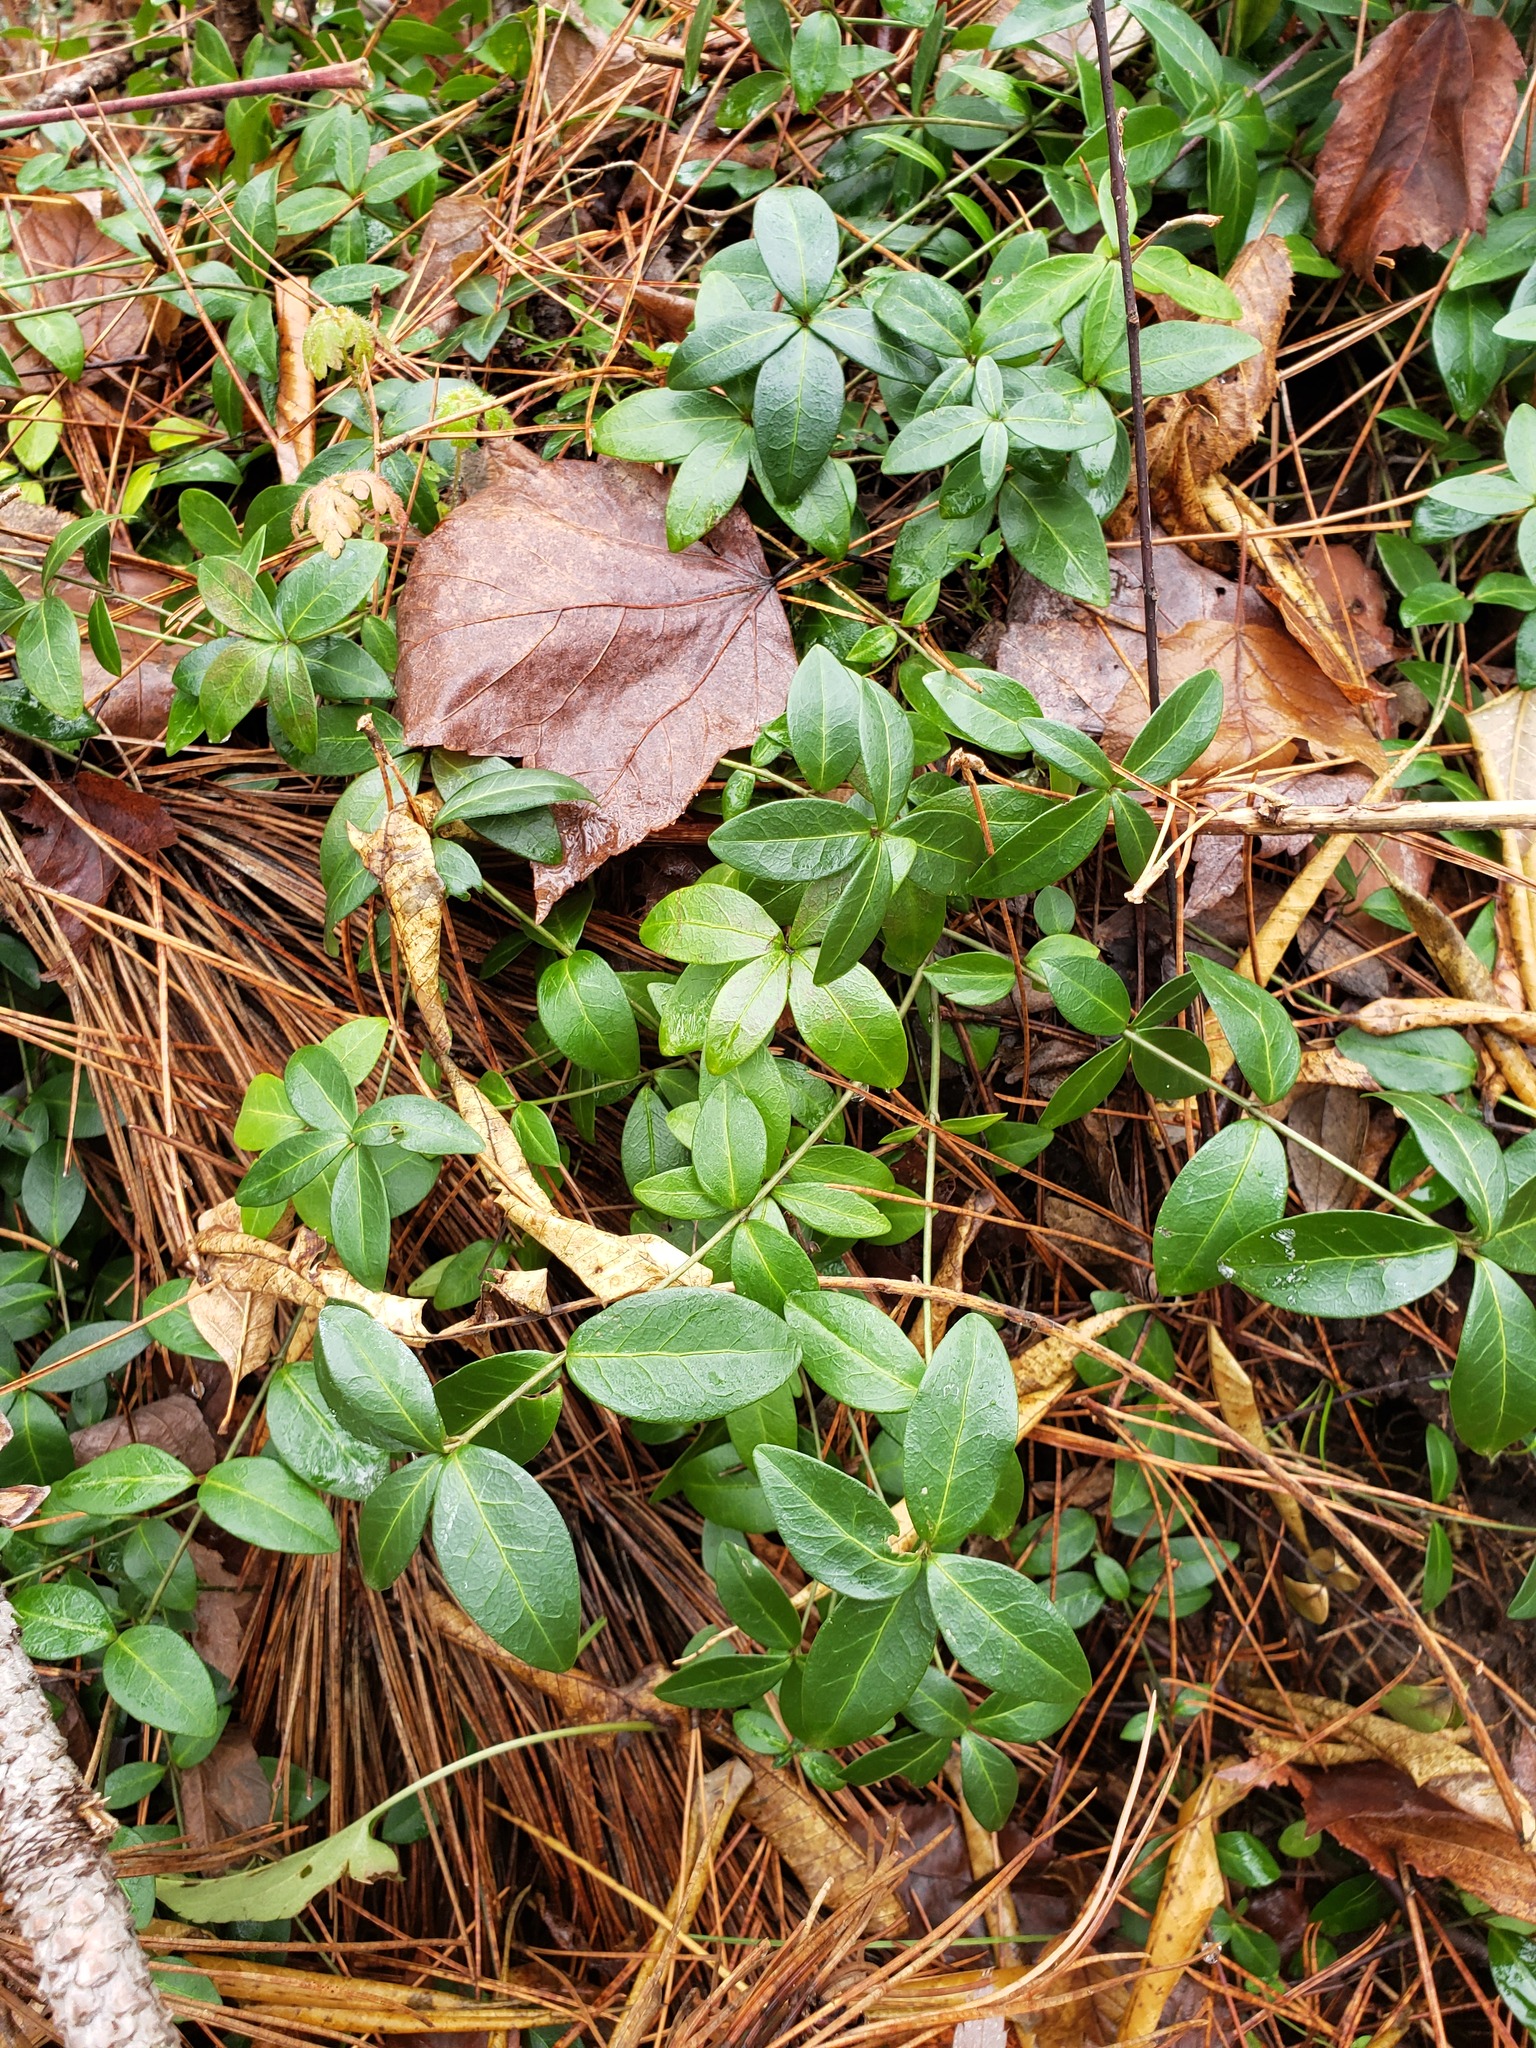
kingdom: Plantae
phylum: Tracheophyta
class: Magnoliopsida
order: Gentianales
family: Apocynaceae
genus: Vinca
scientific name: Vinca minor
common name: Lesser periwinkle
